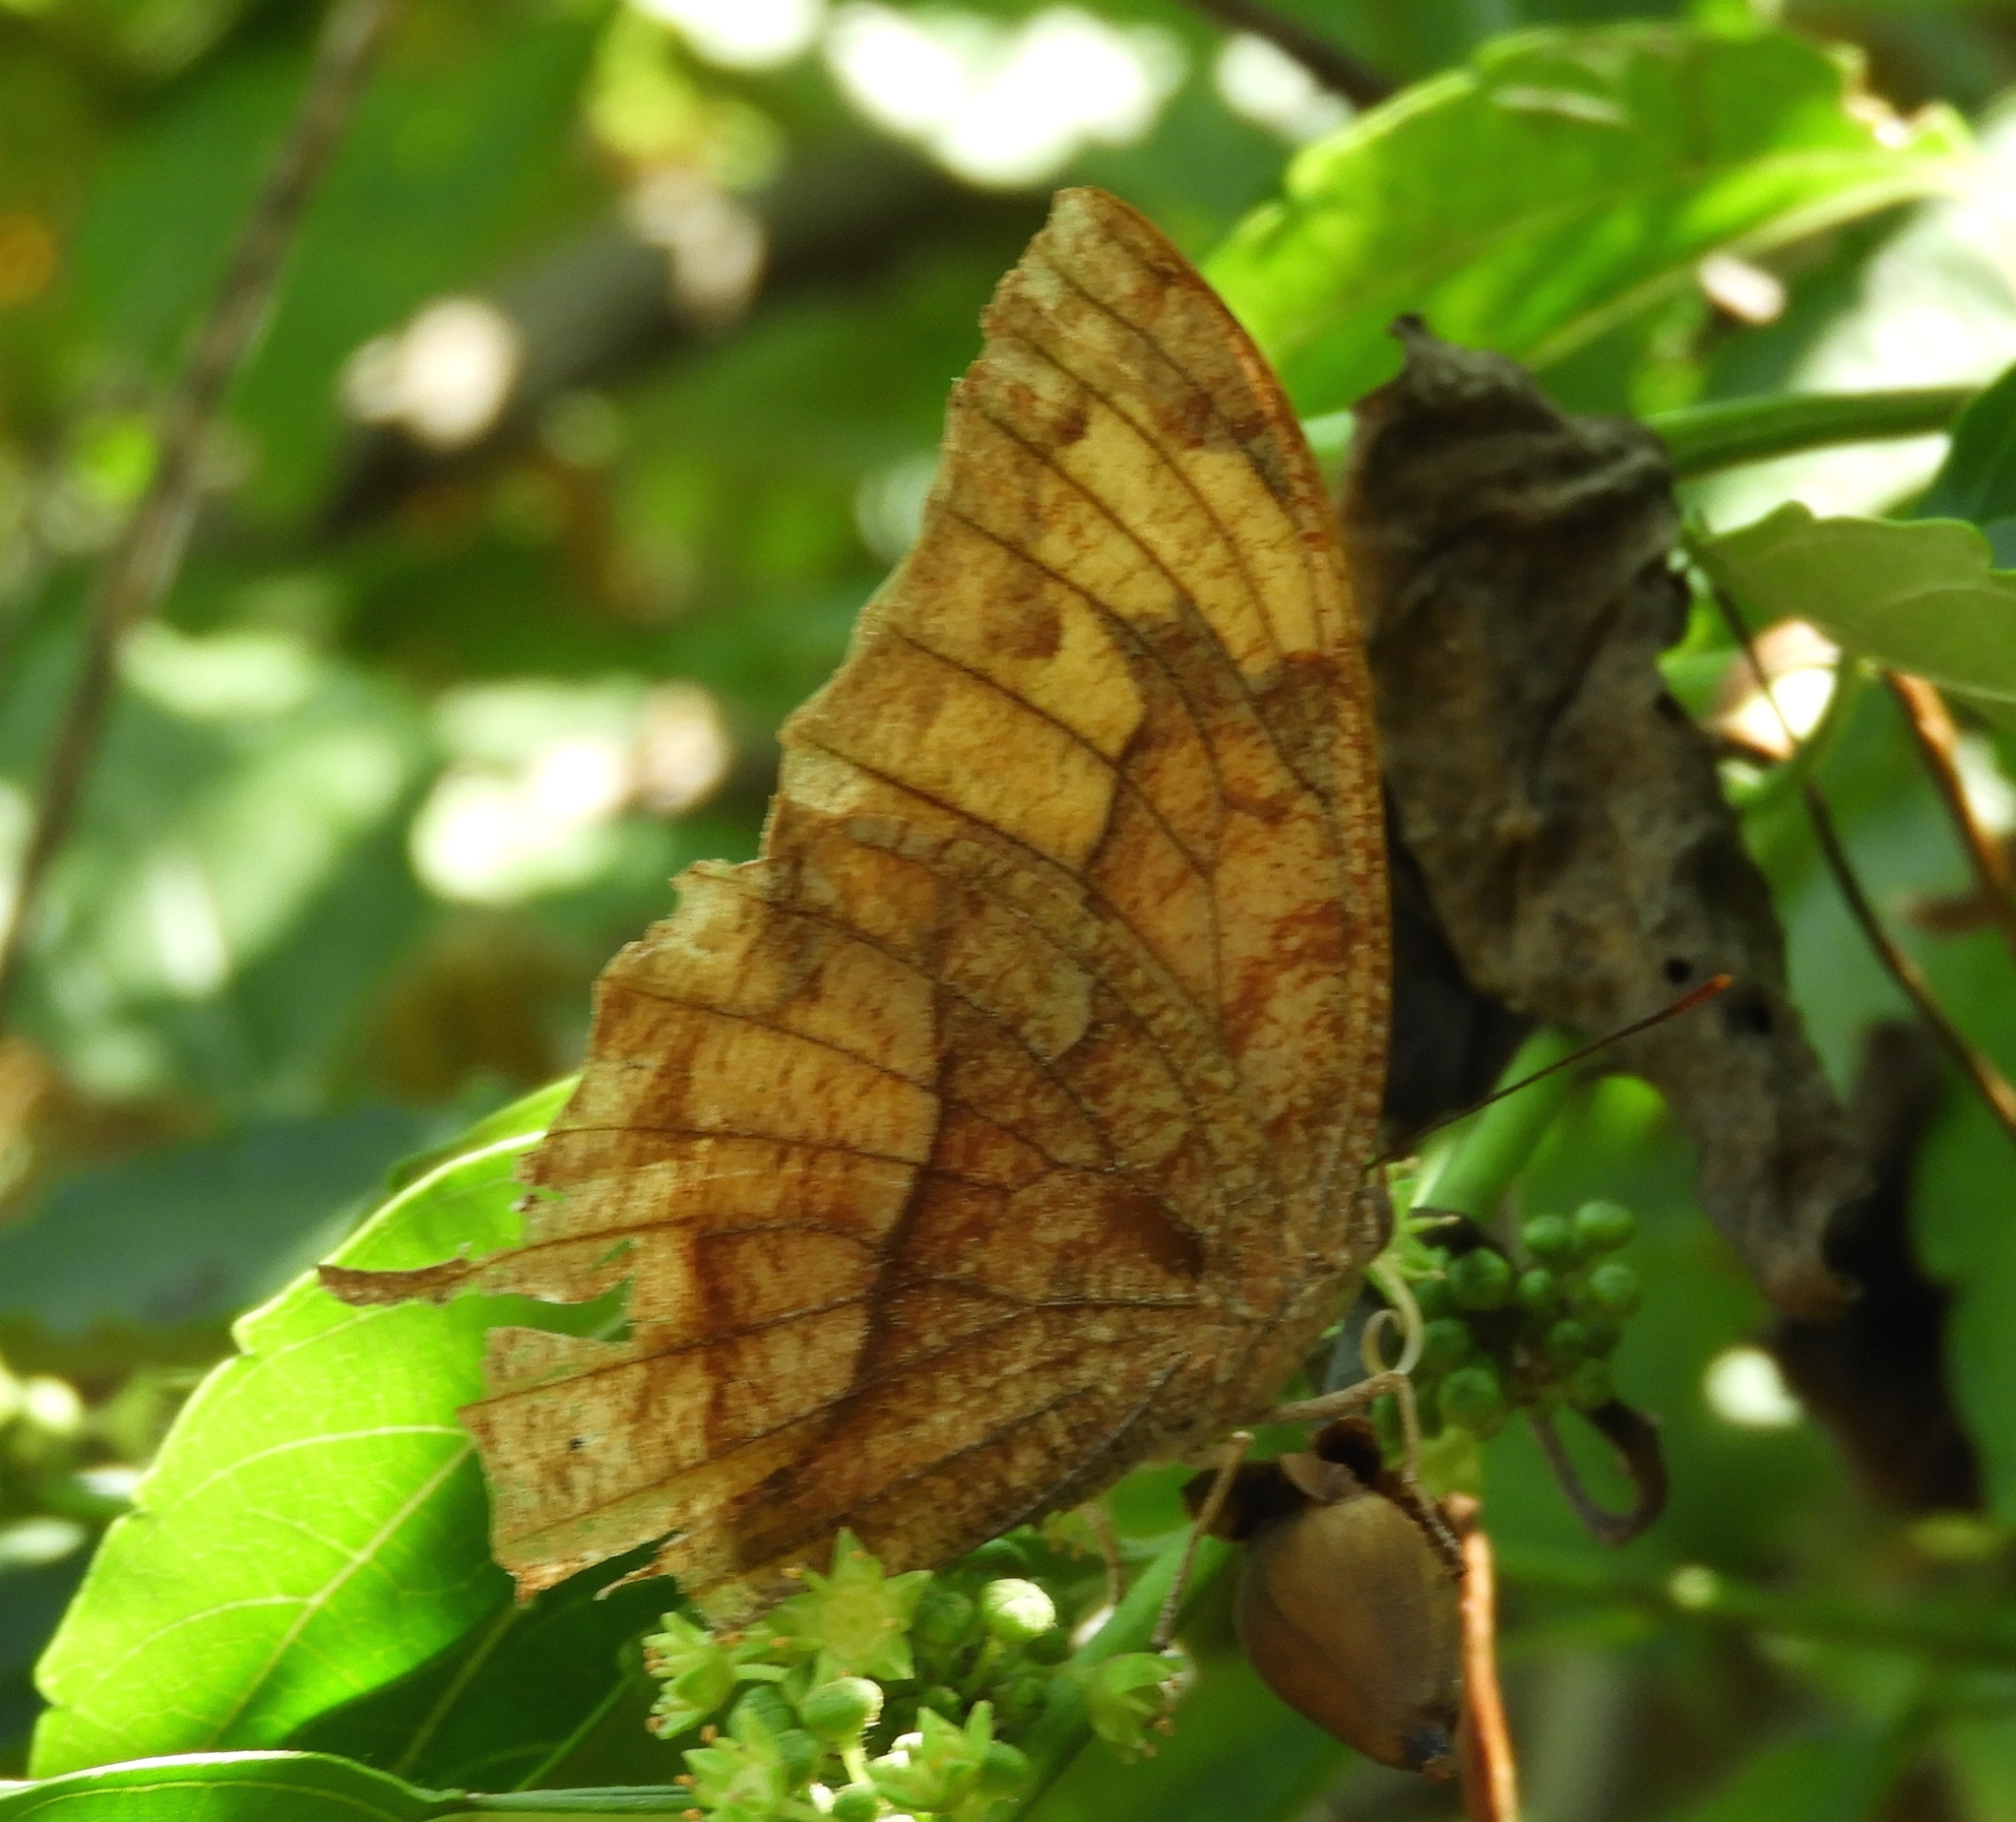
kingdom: Animalia
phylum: Arthropoda
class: Insecta
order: Lepidoptera
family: Nymphalidae
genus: Fountainea
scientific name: Fountainea
